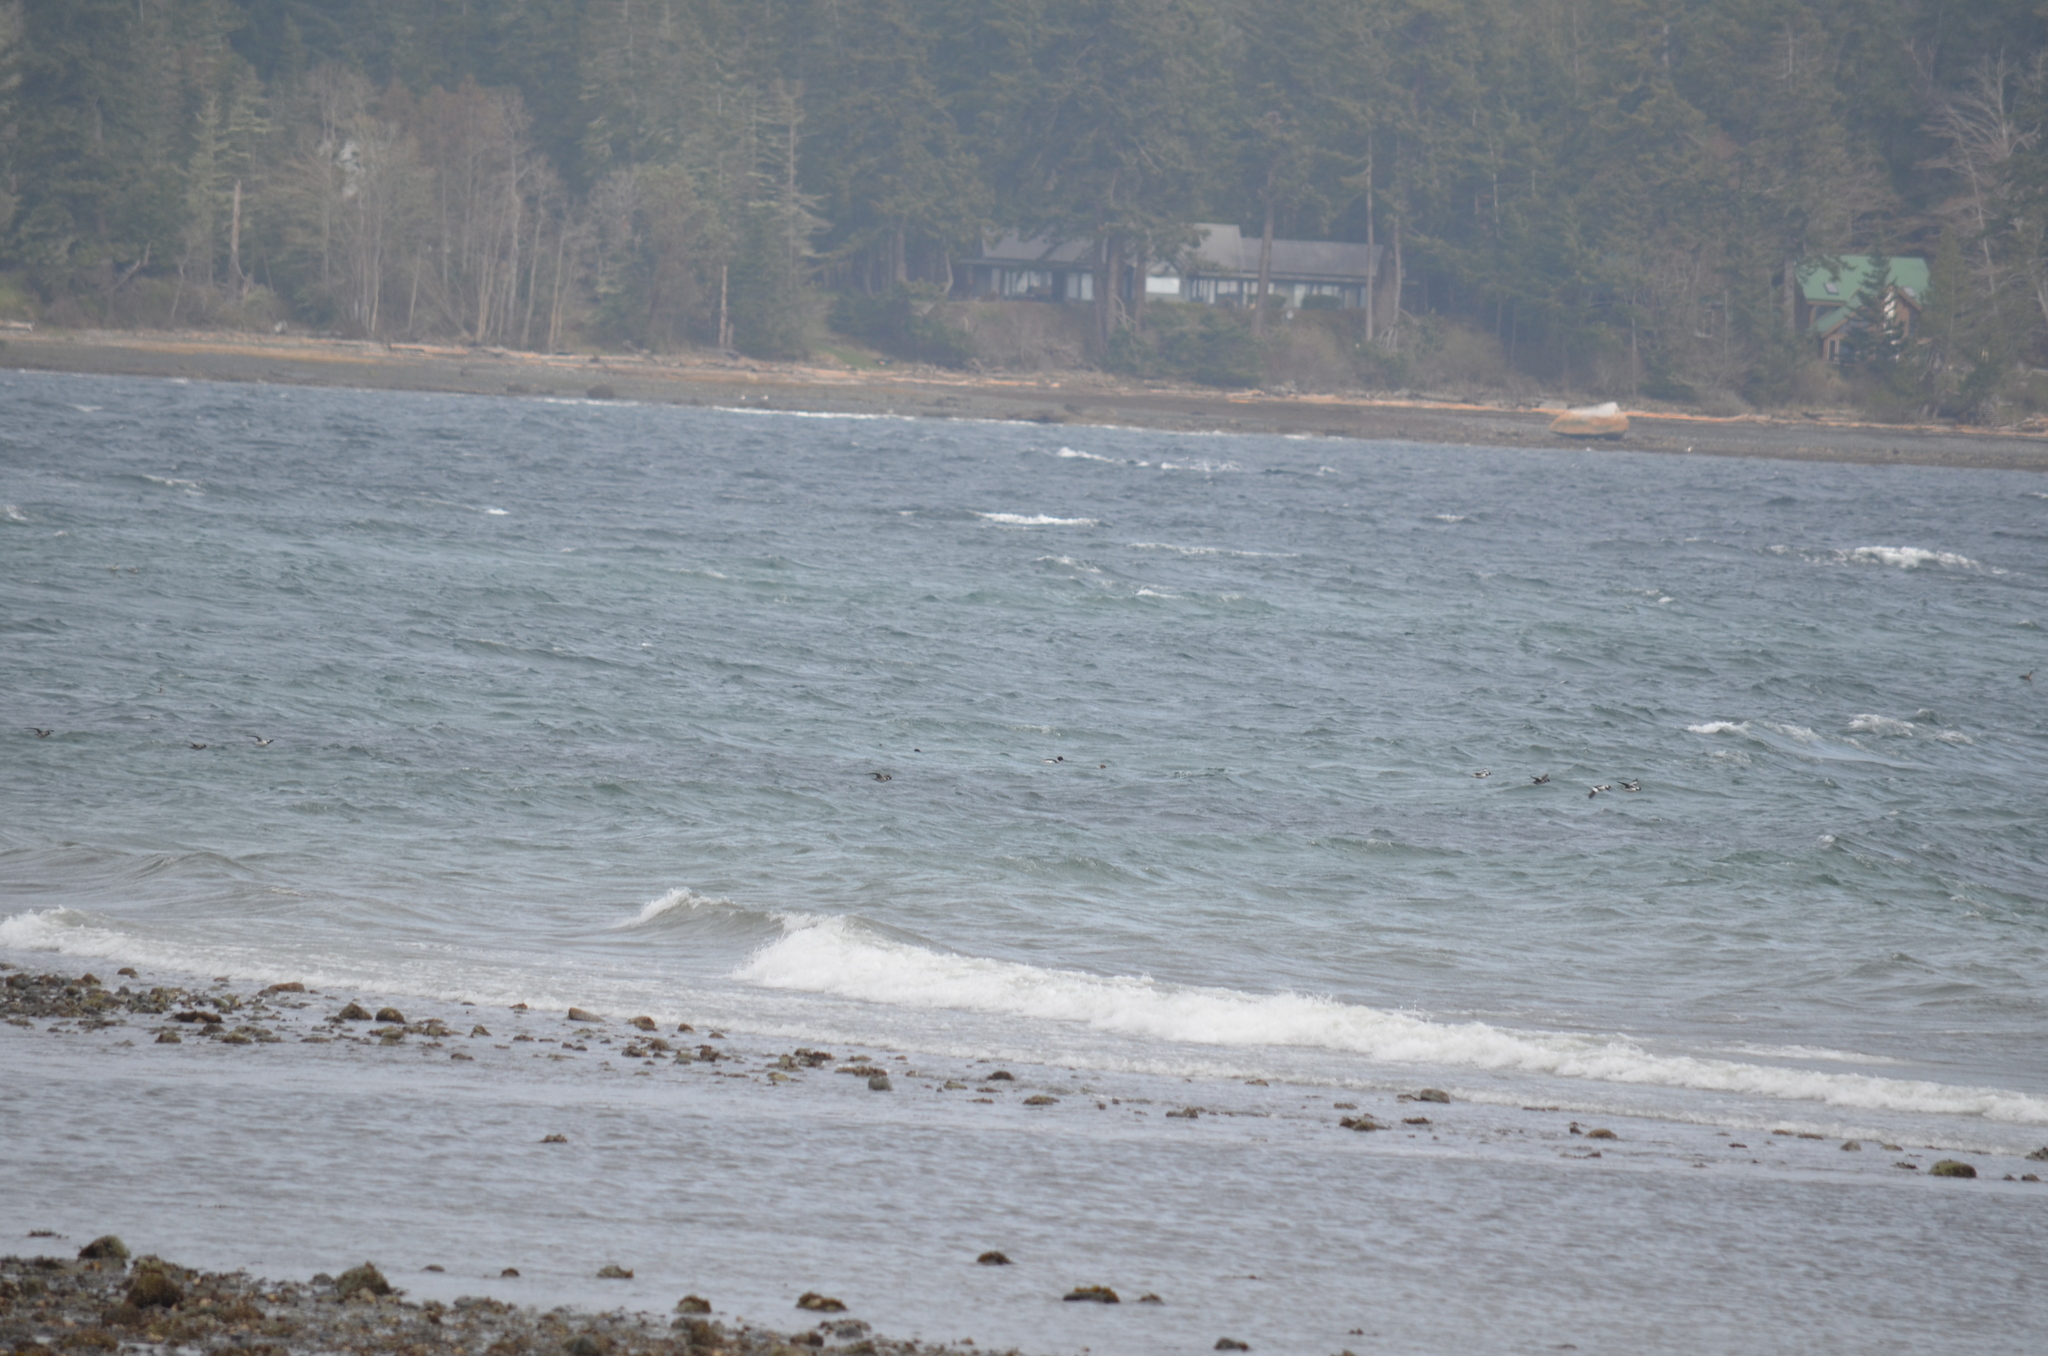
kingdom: Animalia
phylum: Chordata
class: Aves
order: Anseriformes
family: Anatidae
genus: Mergus
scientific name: Mergus serrator
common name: Red-breasted merganser
